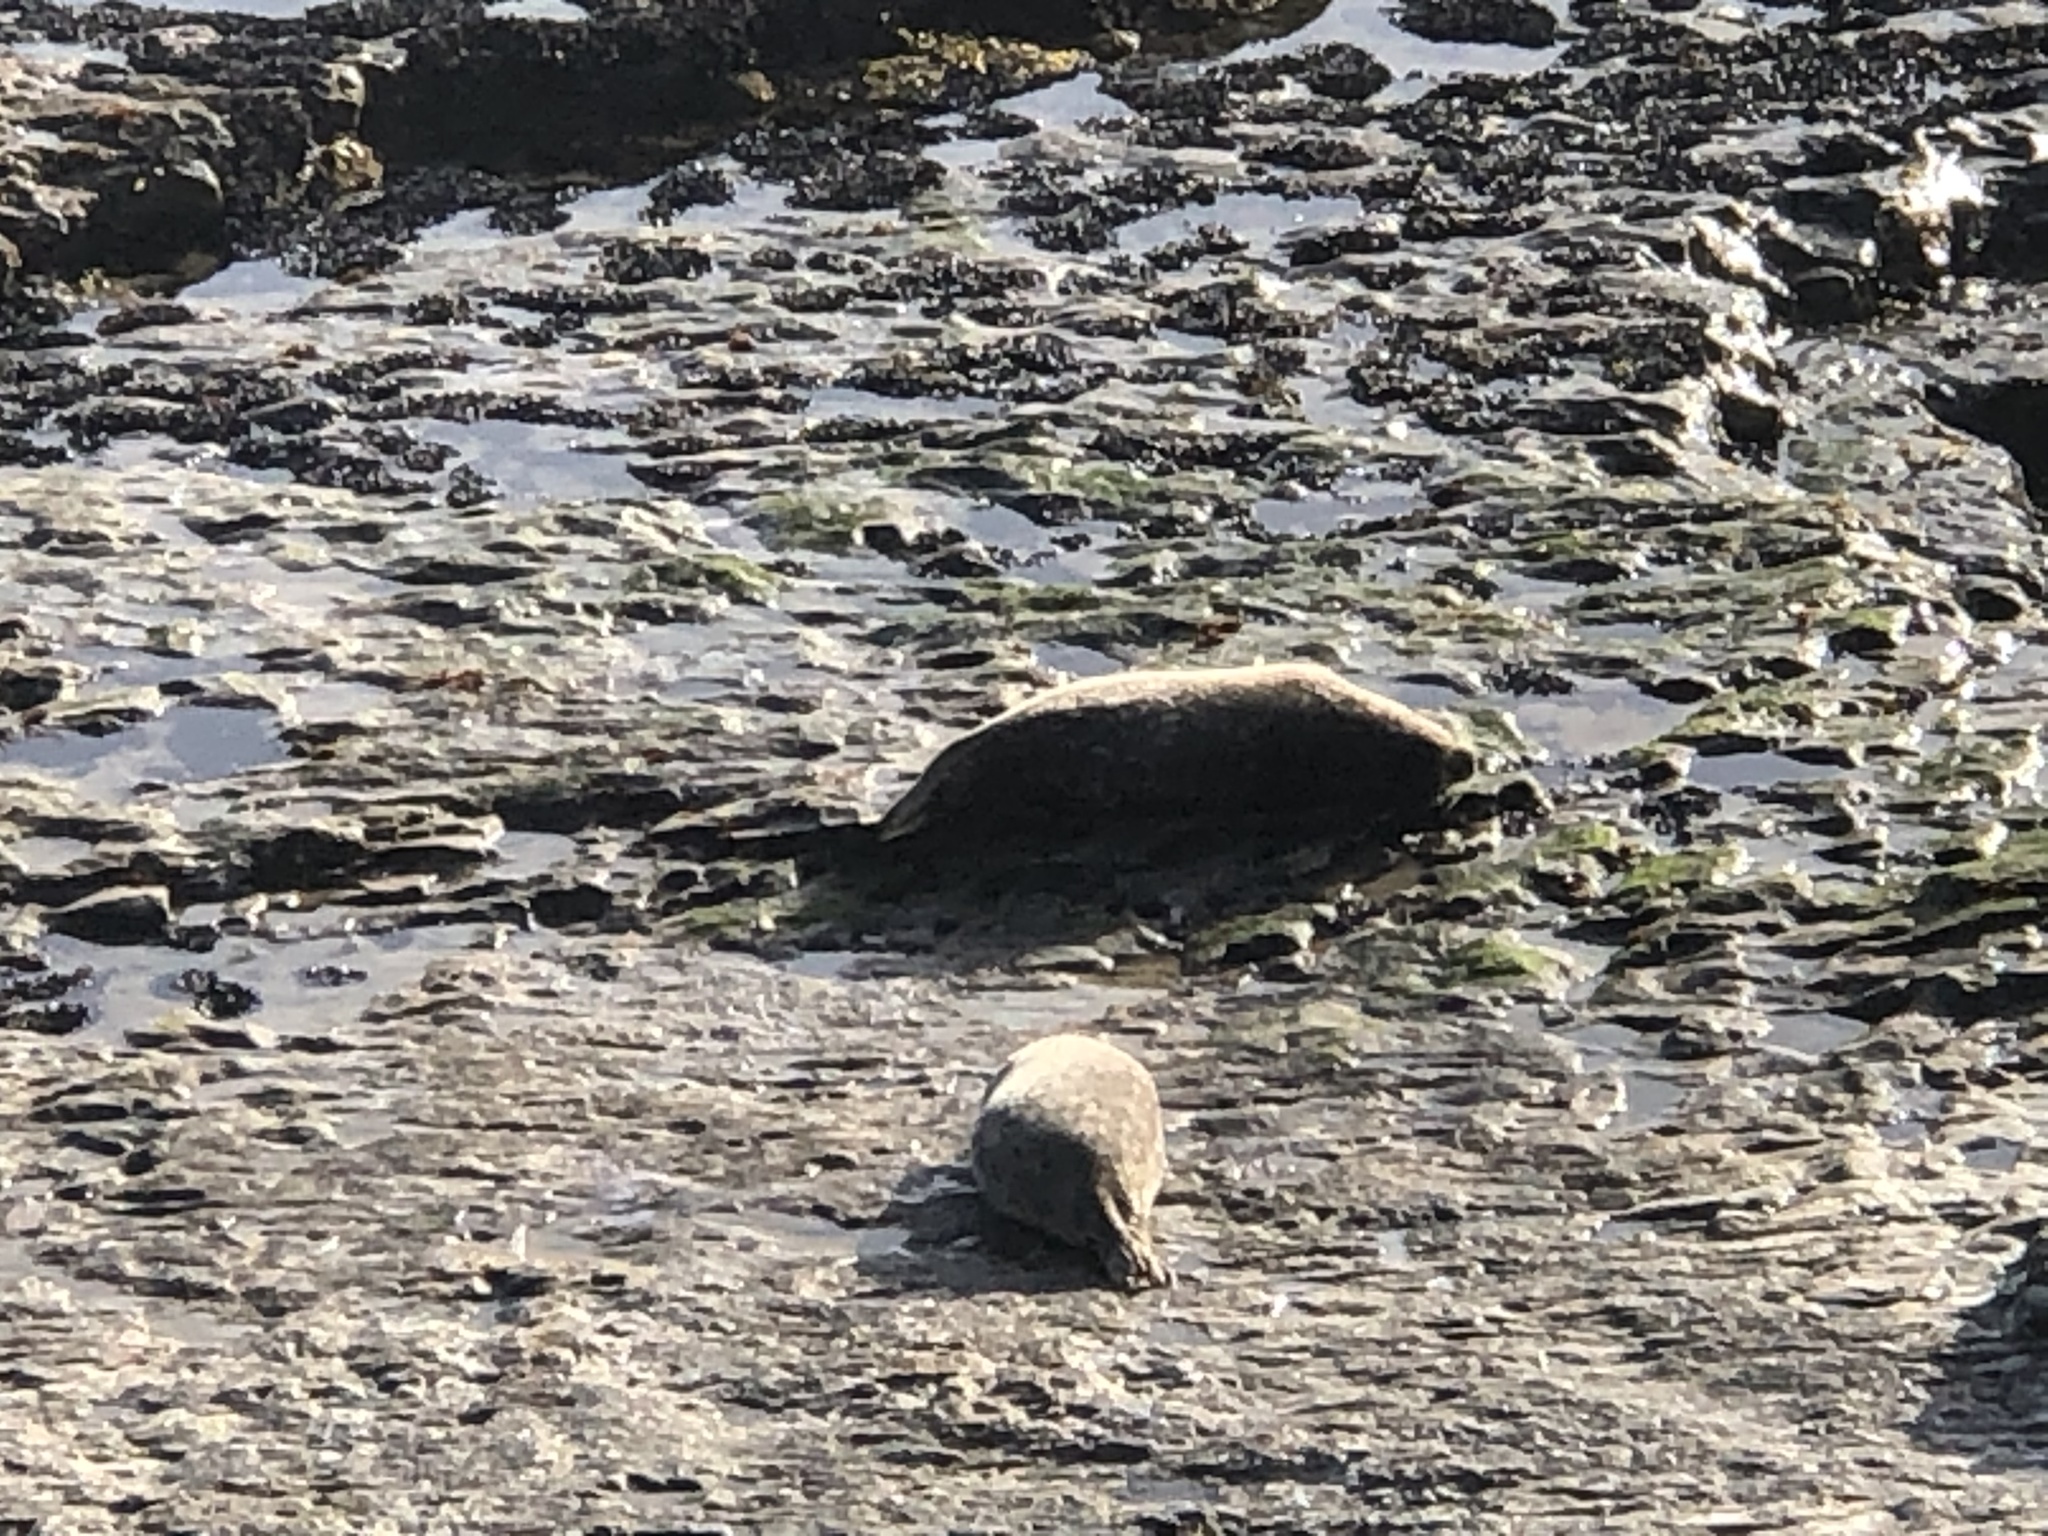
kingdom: Animalia
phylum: Chordata
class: Mammalia
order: Carnivora
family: Phocidae
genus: Phoca
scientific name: Phoca vitulina
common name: Harbor seal
